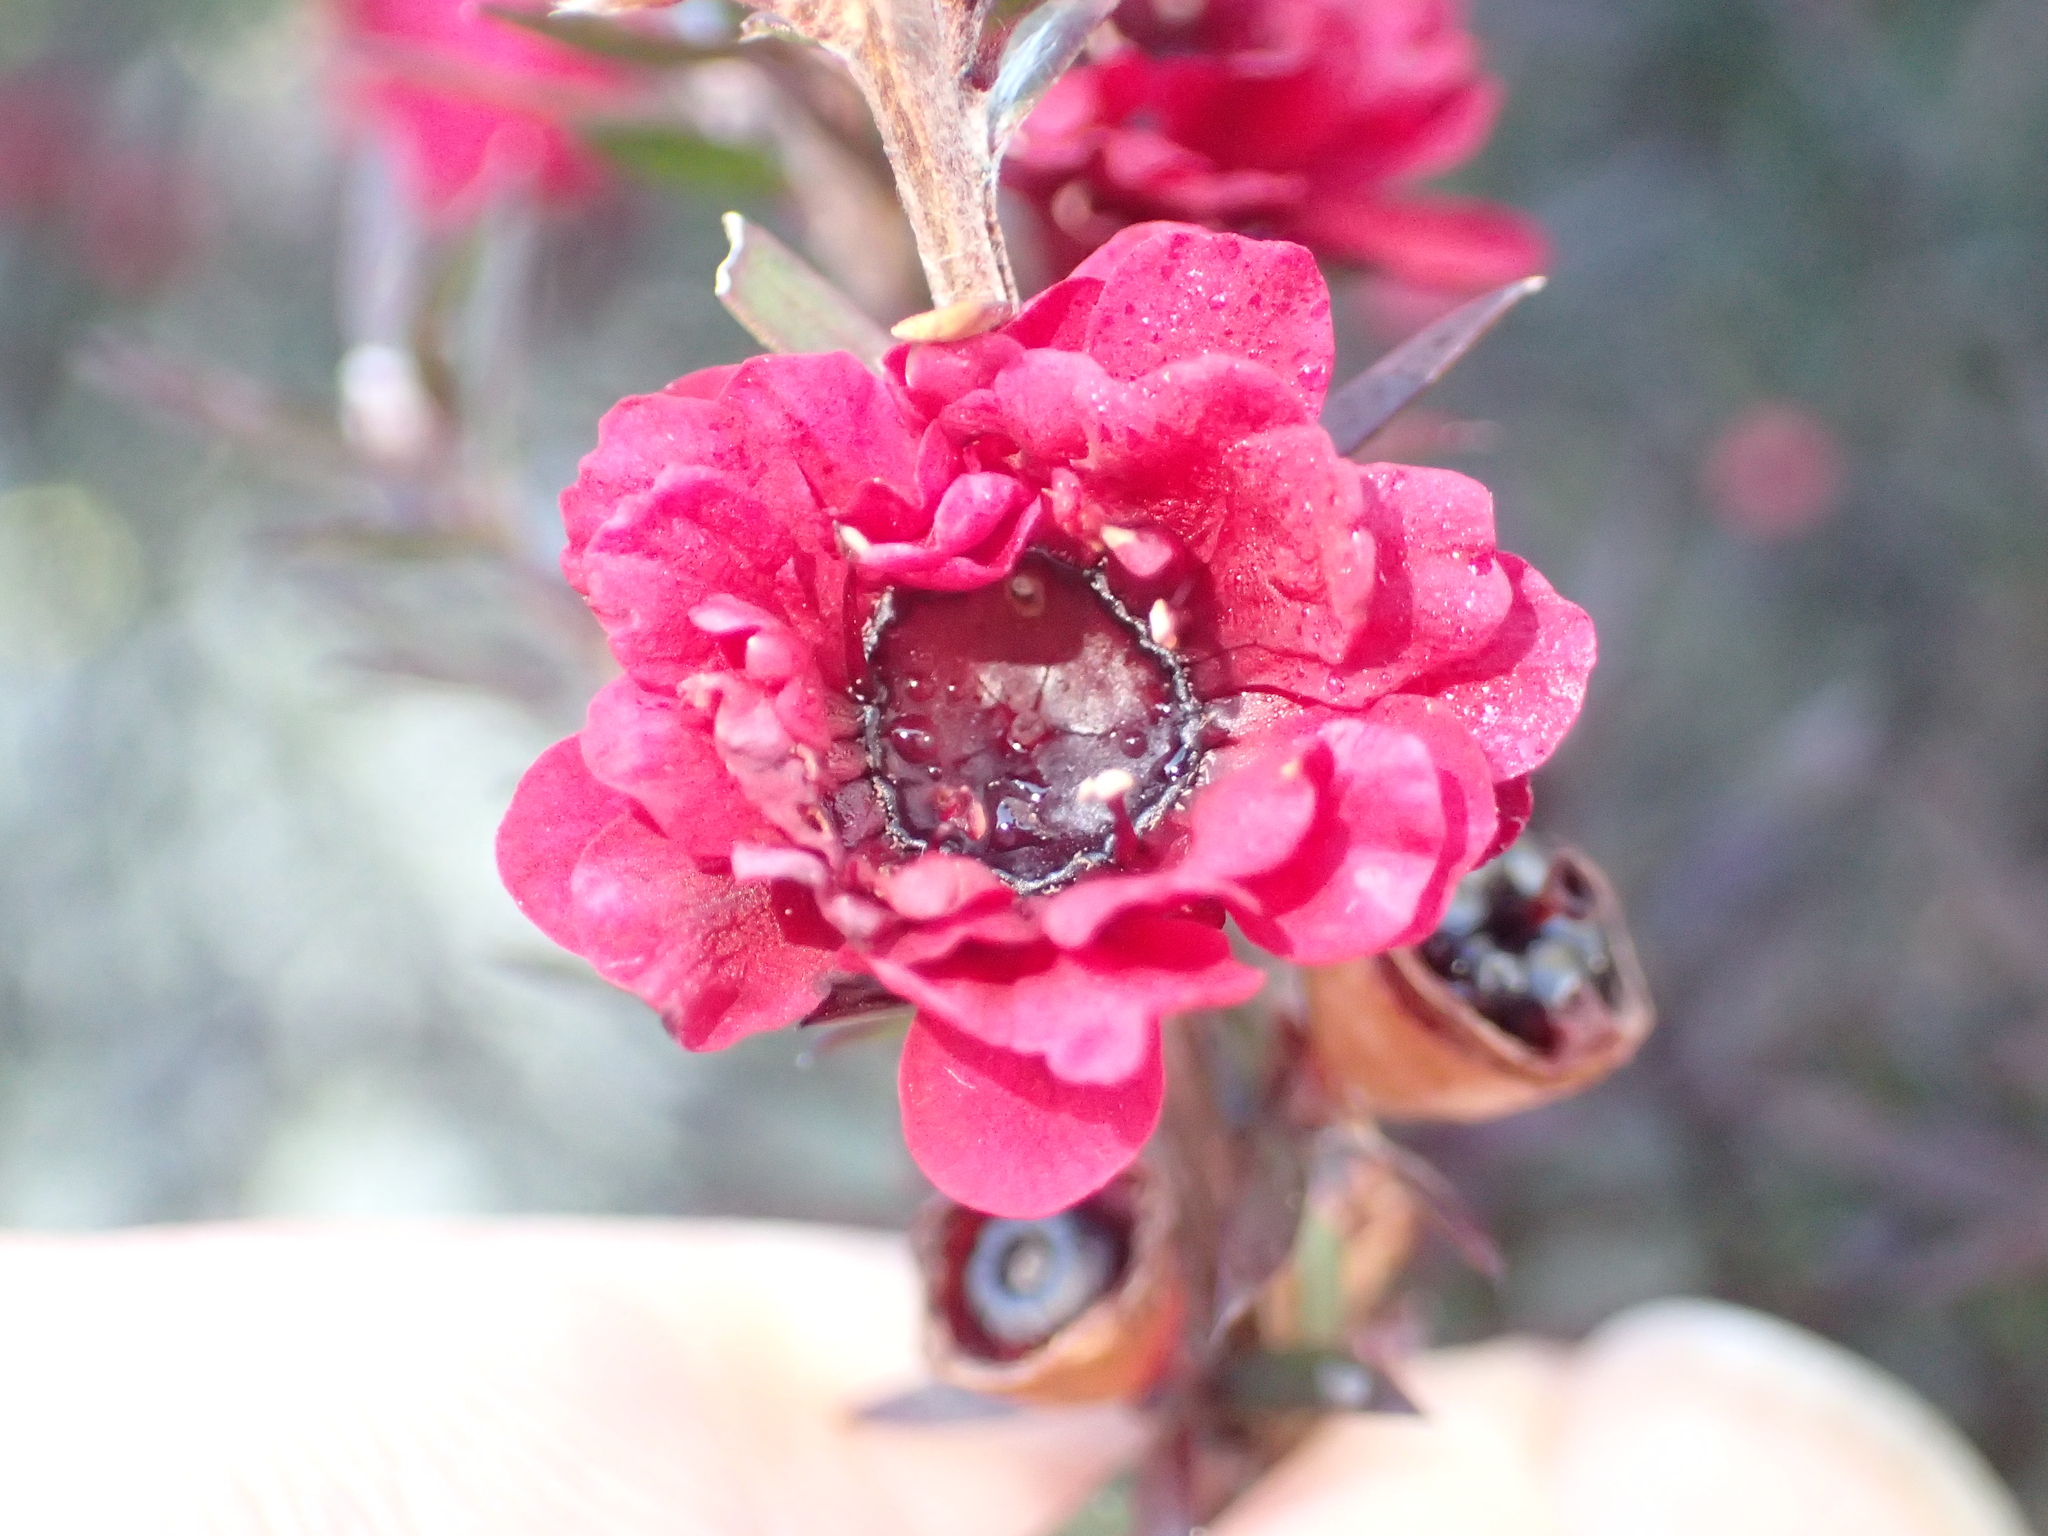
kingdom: Plantae
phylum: Tracheophyta
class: Magnoliopsida
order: Myrtales
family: Myrtaceae
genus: Leptospermum
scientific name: Leptospermum scoparium
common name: Broom tea-tree
